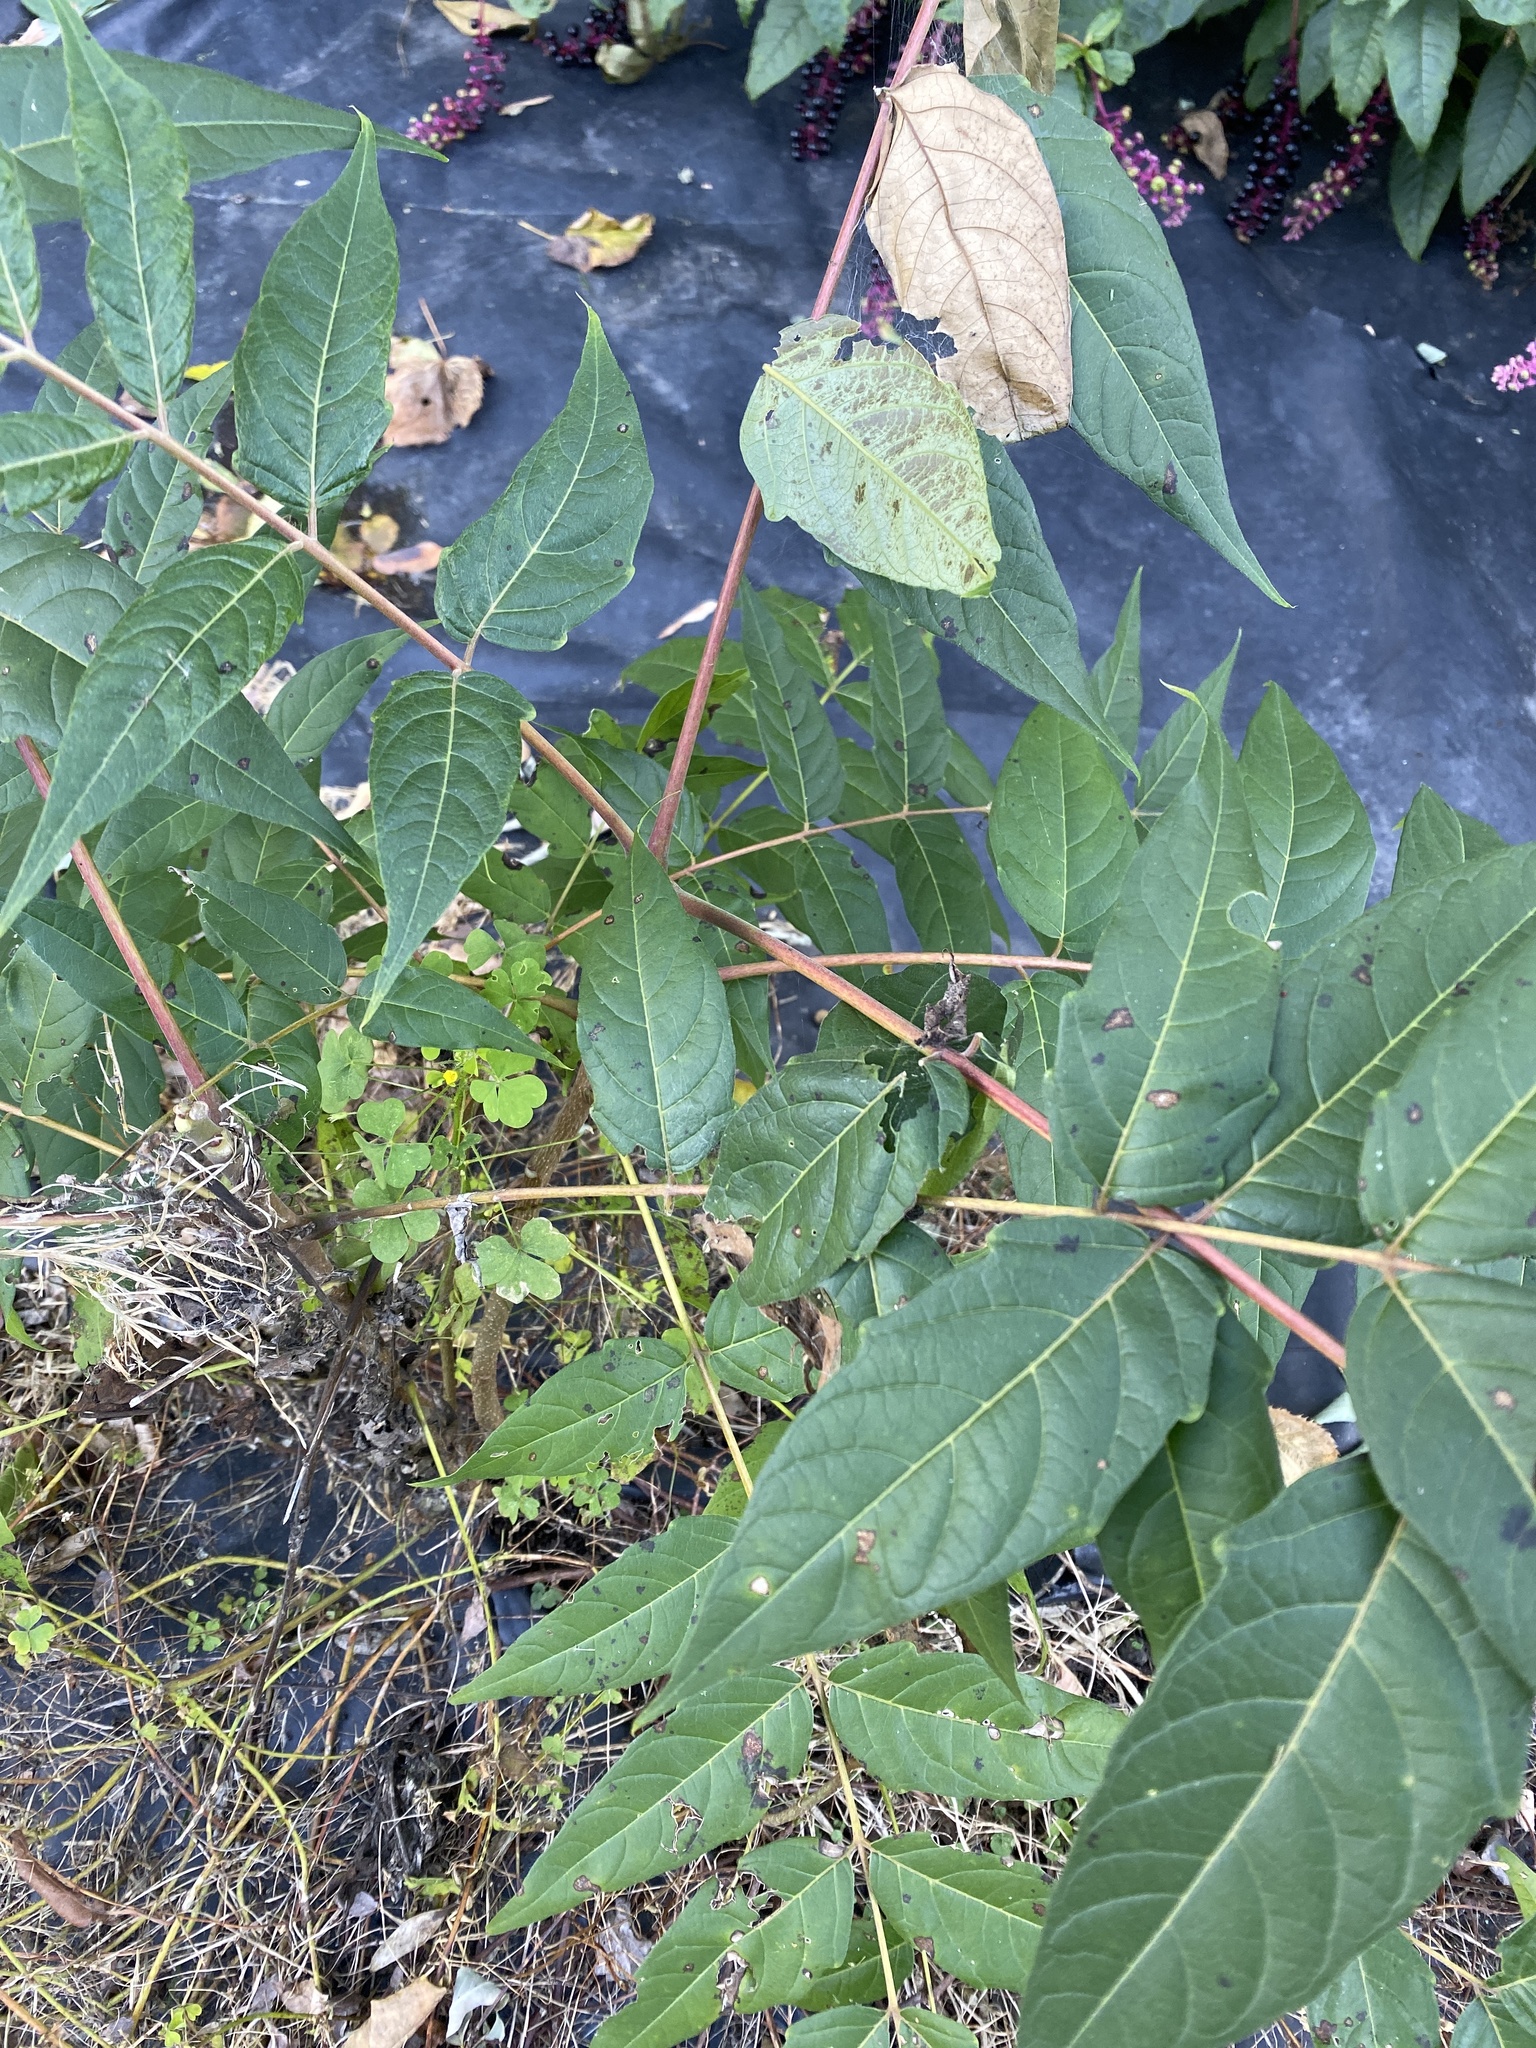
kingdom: Plantae
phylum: Tracheophyta
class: Magnoliopsida
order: Sapindales
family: Simaroubaceae
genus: Ailanthus
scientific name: Ailanthus altissima
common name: Tree-of-heaven
